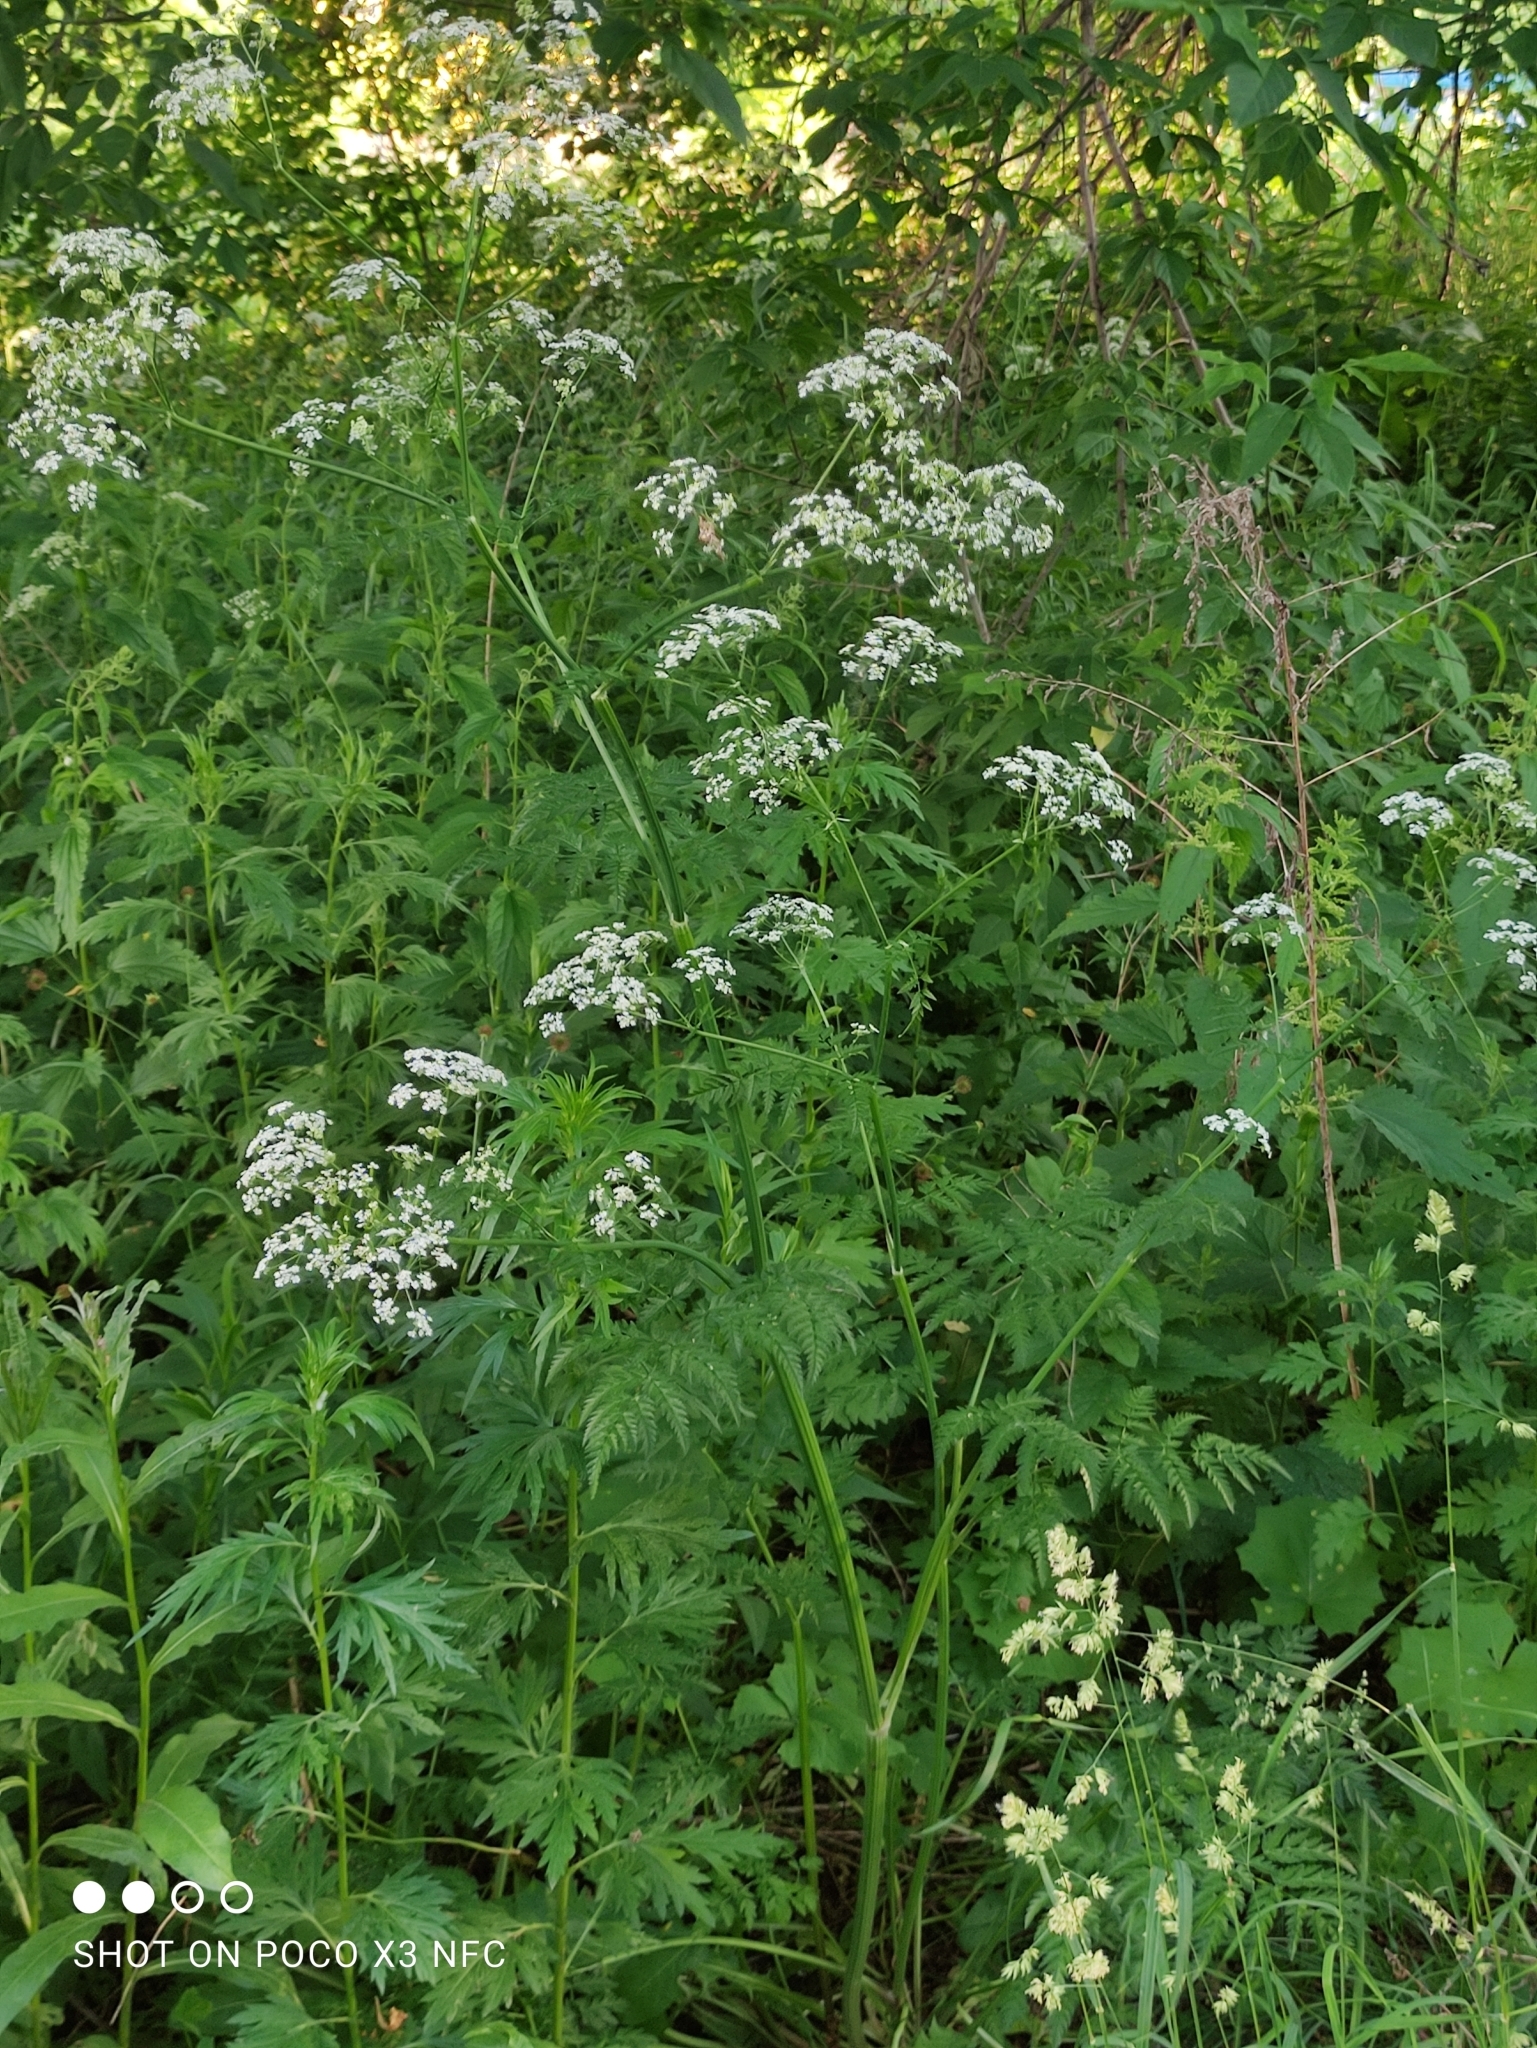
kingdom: Plantae
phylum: Tracheophyta
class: Magnoliopsida
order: Apiales
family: Apiaceae
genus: Anthriscus
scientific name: Anthriscus sylvestris
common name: Cow parsley
